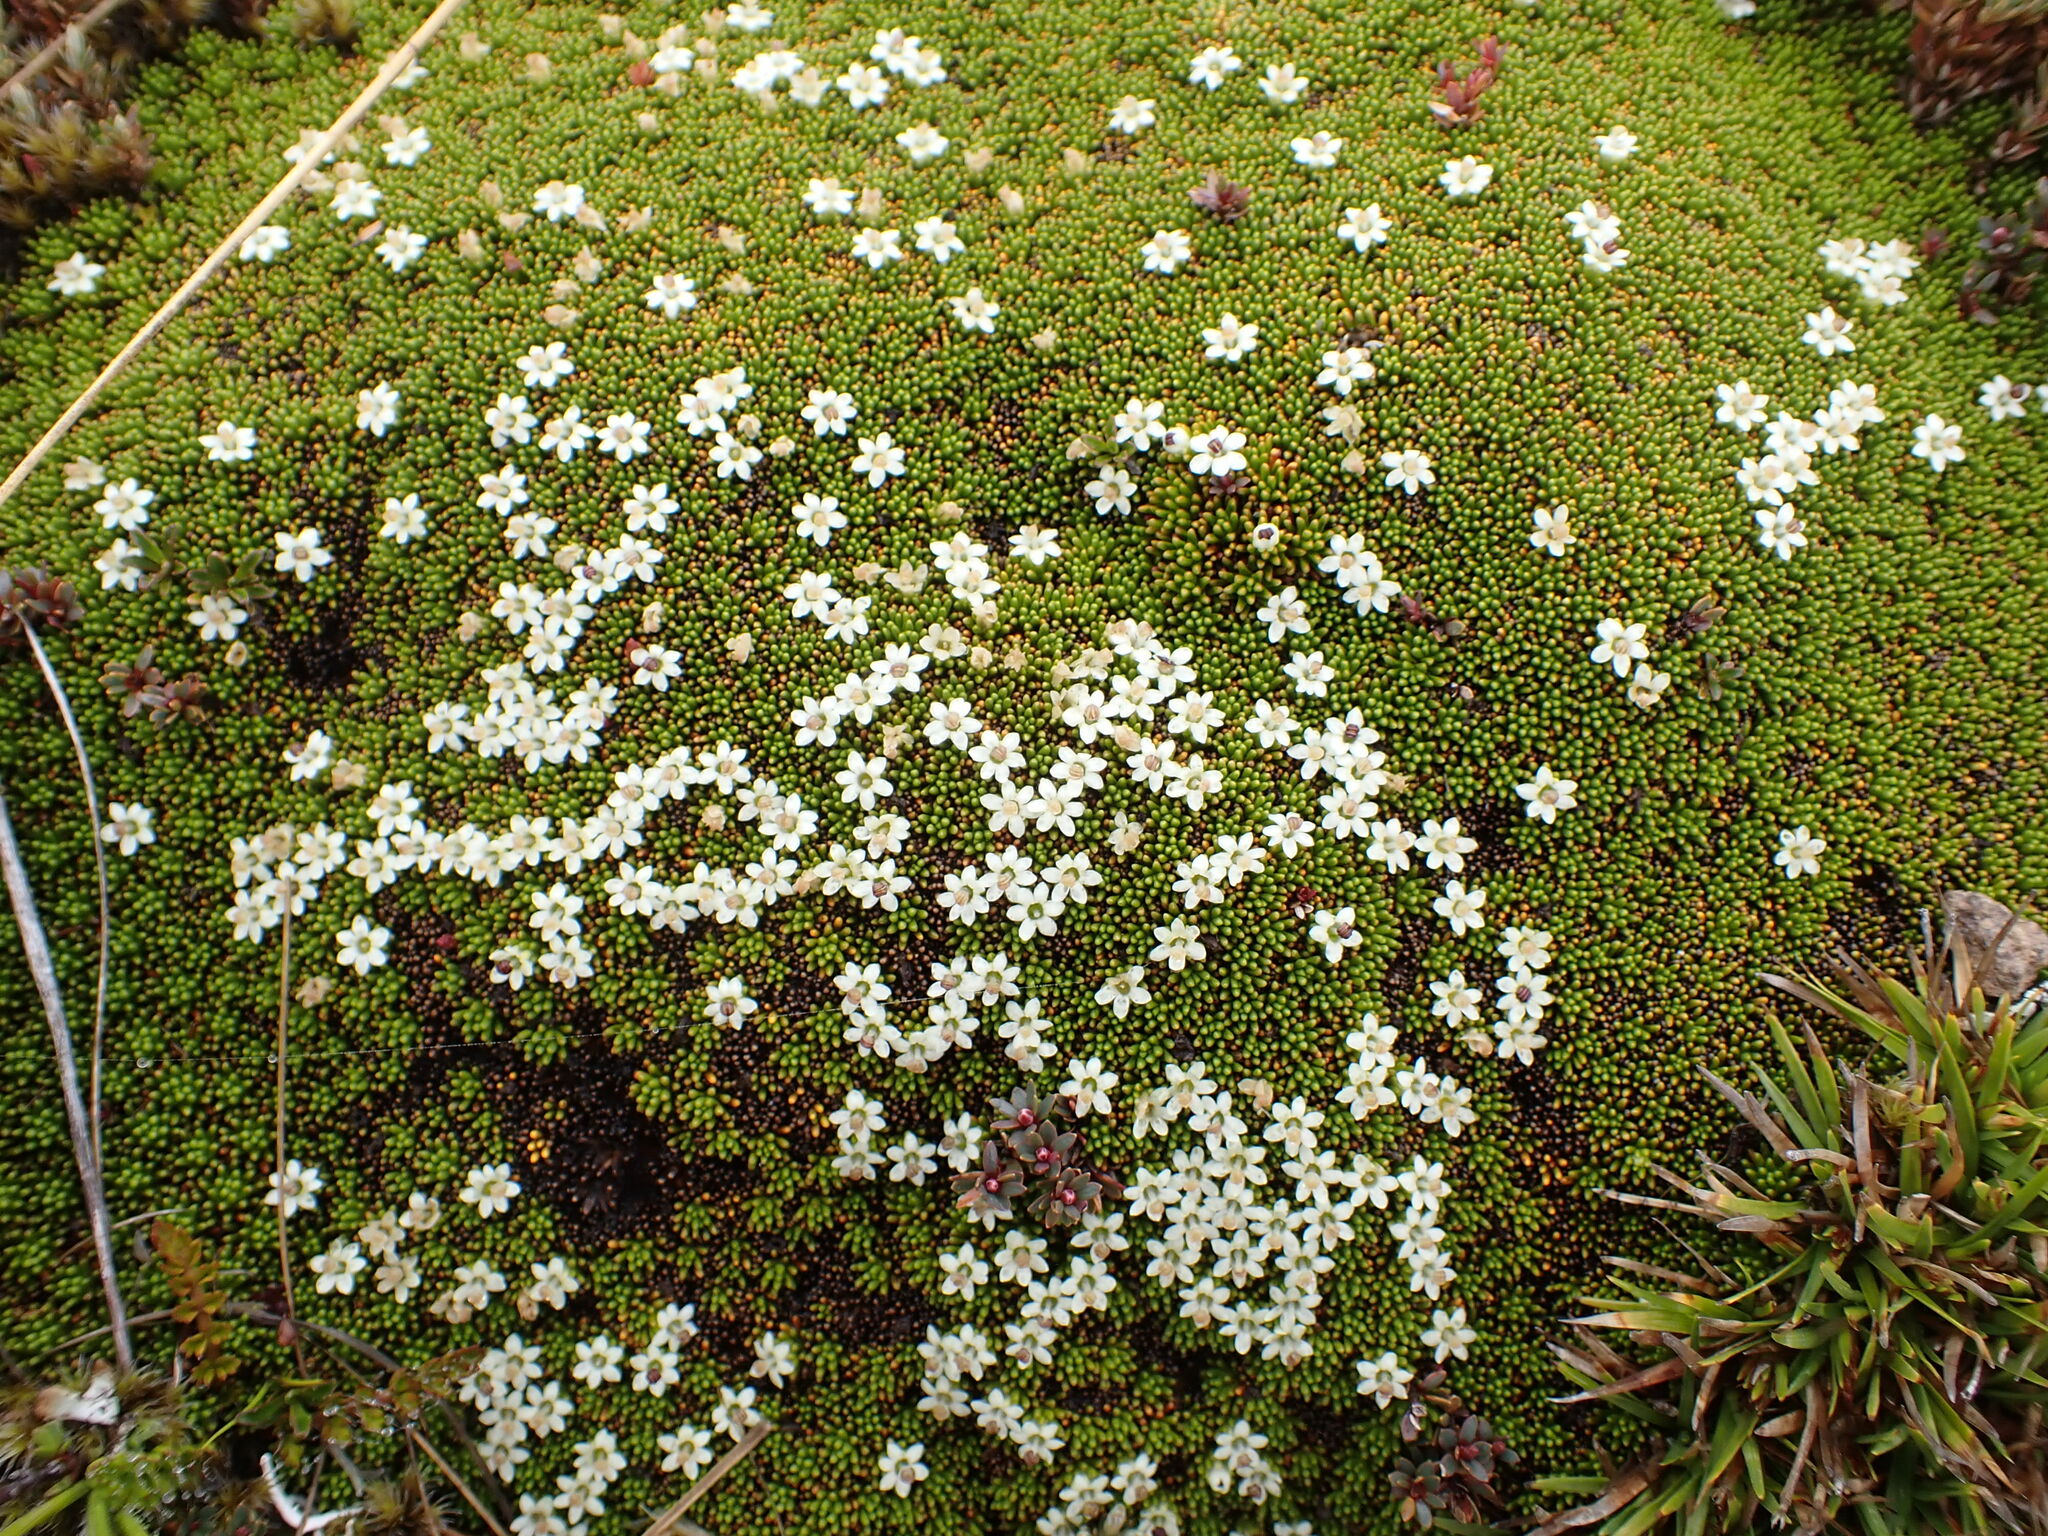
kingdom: Plantae
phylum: Tracheophyta
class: Magnoliopsida
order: Asterales
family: Stylidiaceae
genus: Phyllachne
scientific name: Phyllachne colensoi
